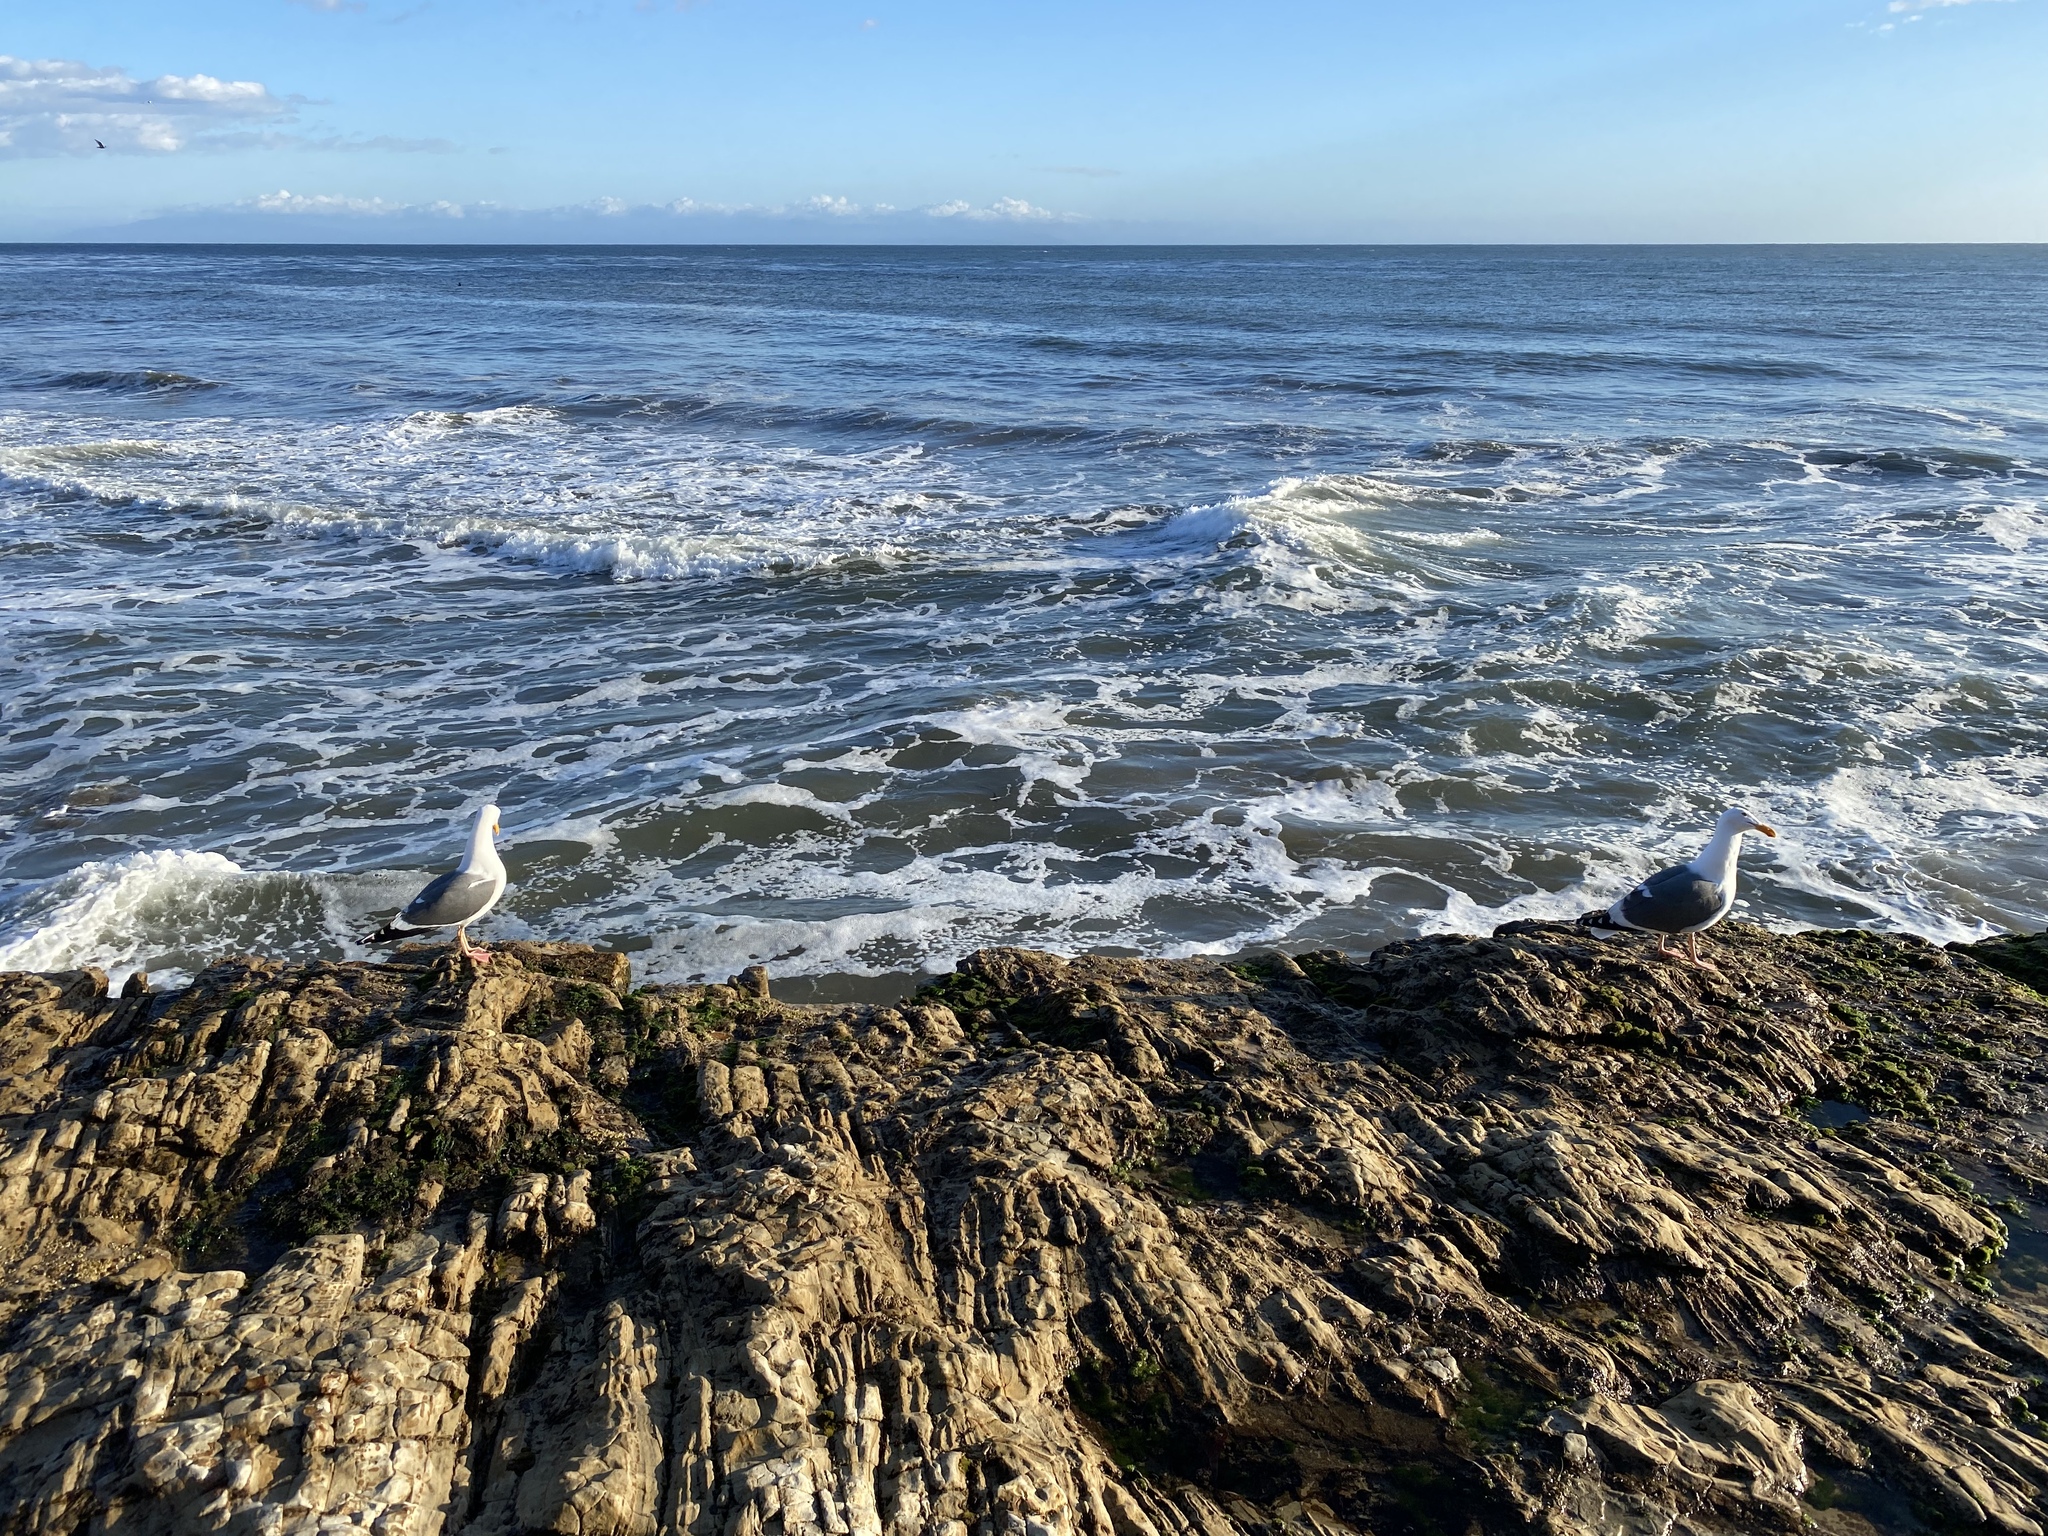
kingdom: Animalia
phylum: Chordata
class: Aves
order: Charadriiformes
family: Laridae
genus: Larus
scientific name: Larus occidentalis
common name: Western gull
